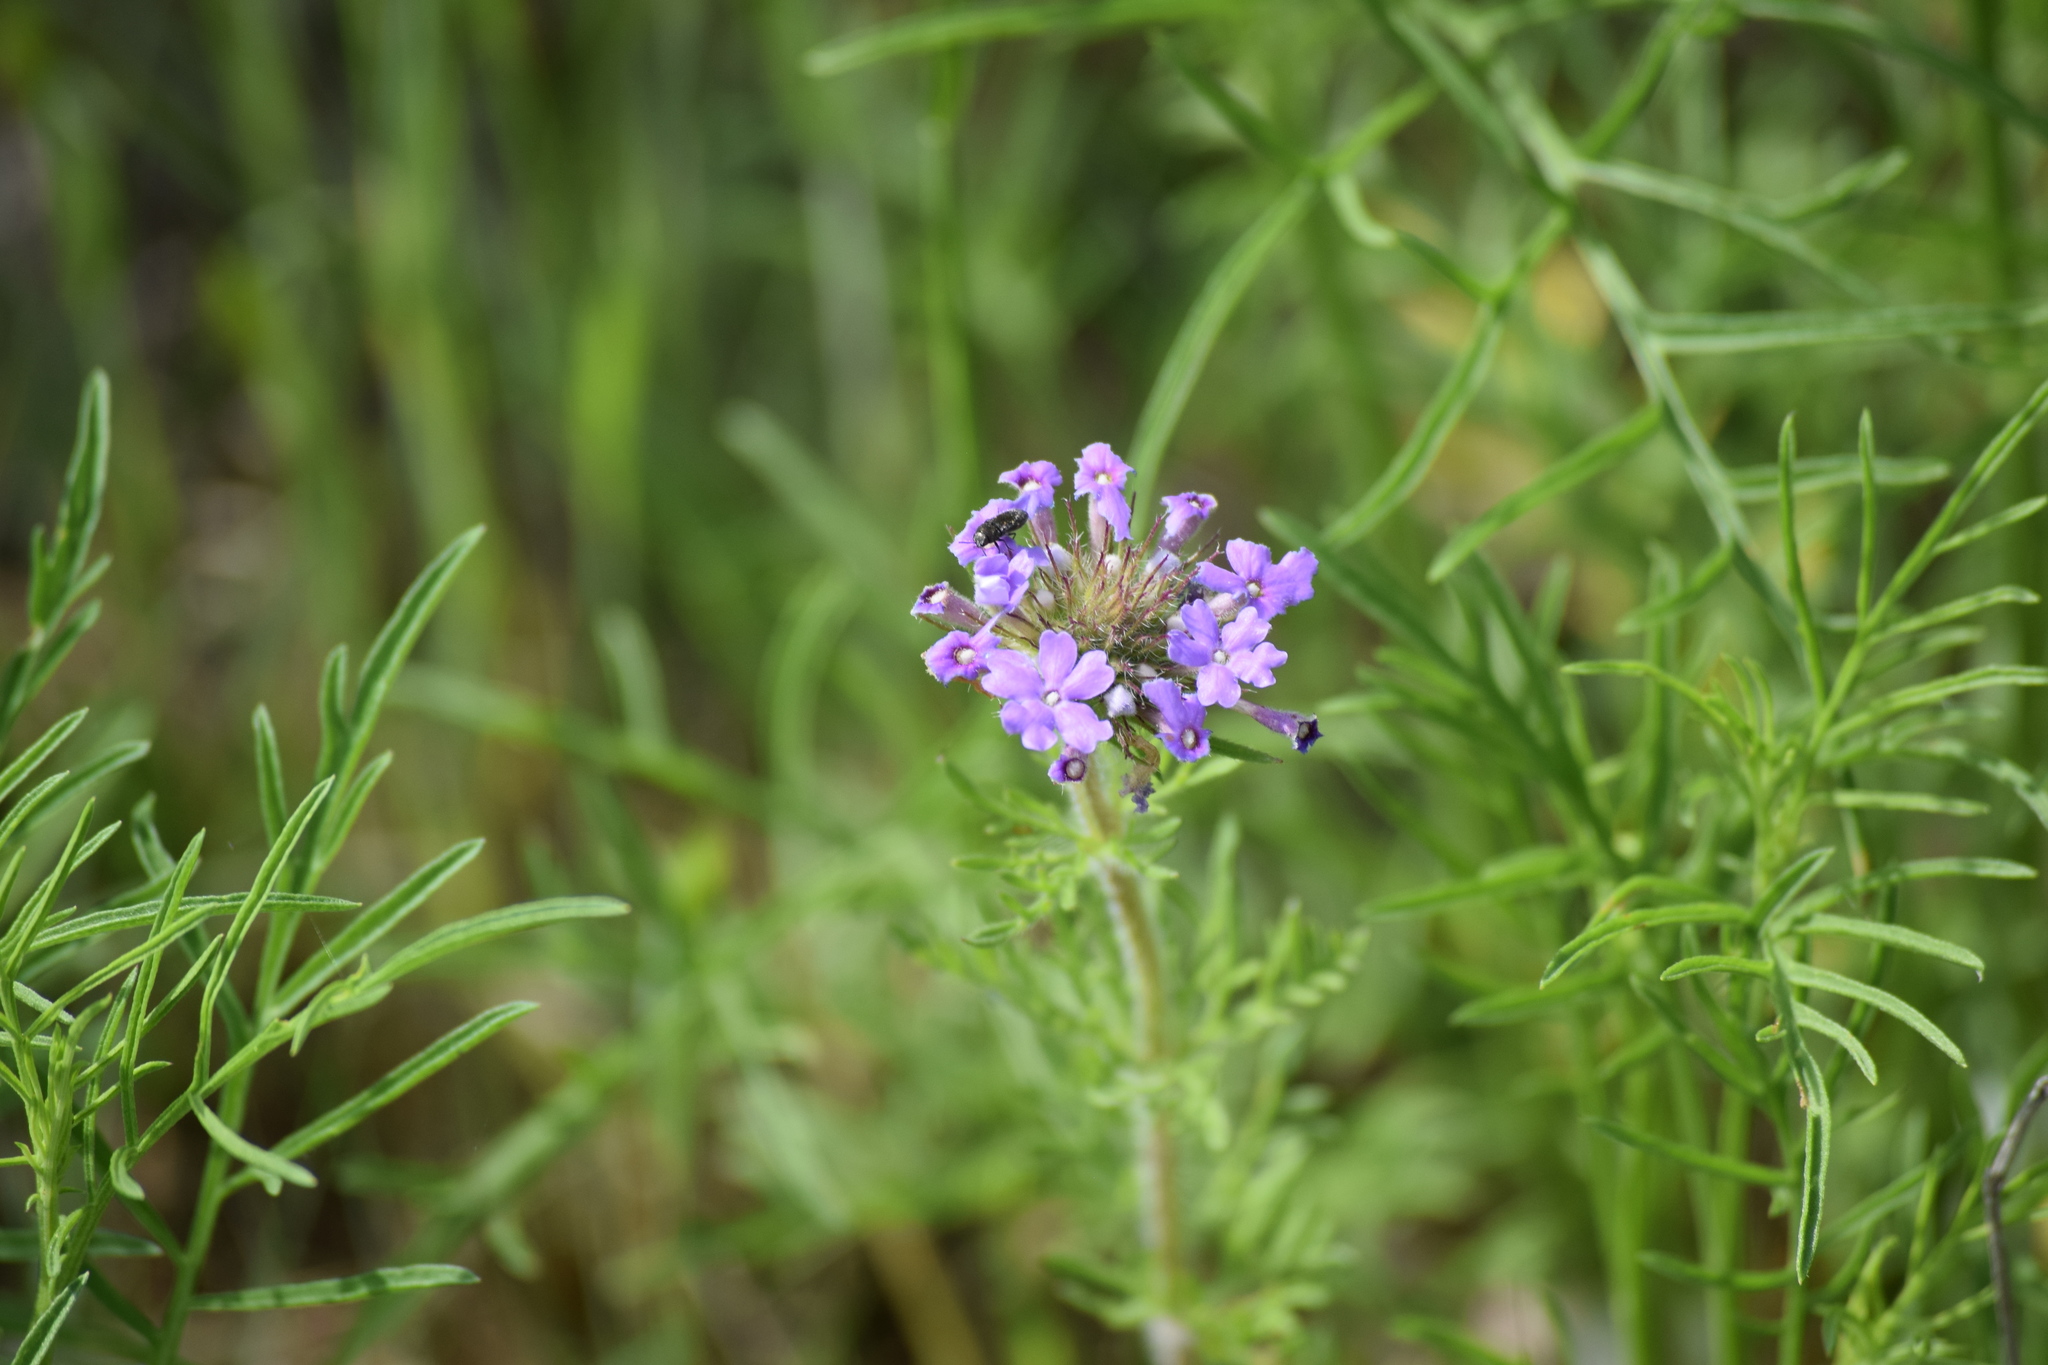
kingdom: Plantae
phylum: Tracheophyta
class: Magnoliopsida
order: Lamiales
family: Verbenaceae
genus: Verbena
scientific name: Verbena bipinnatifida
